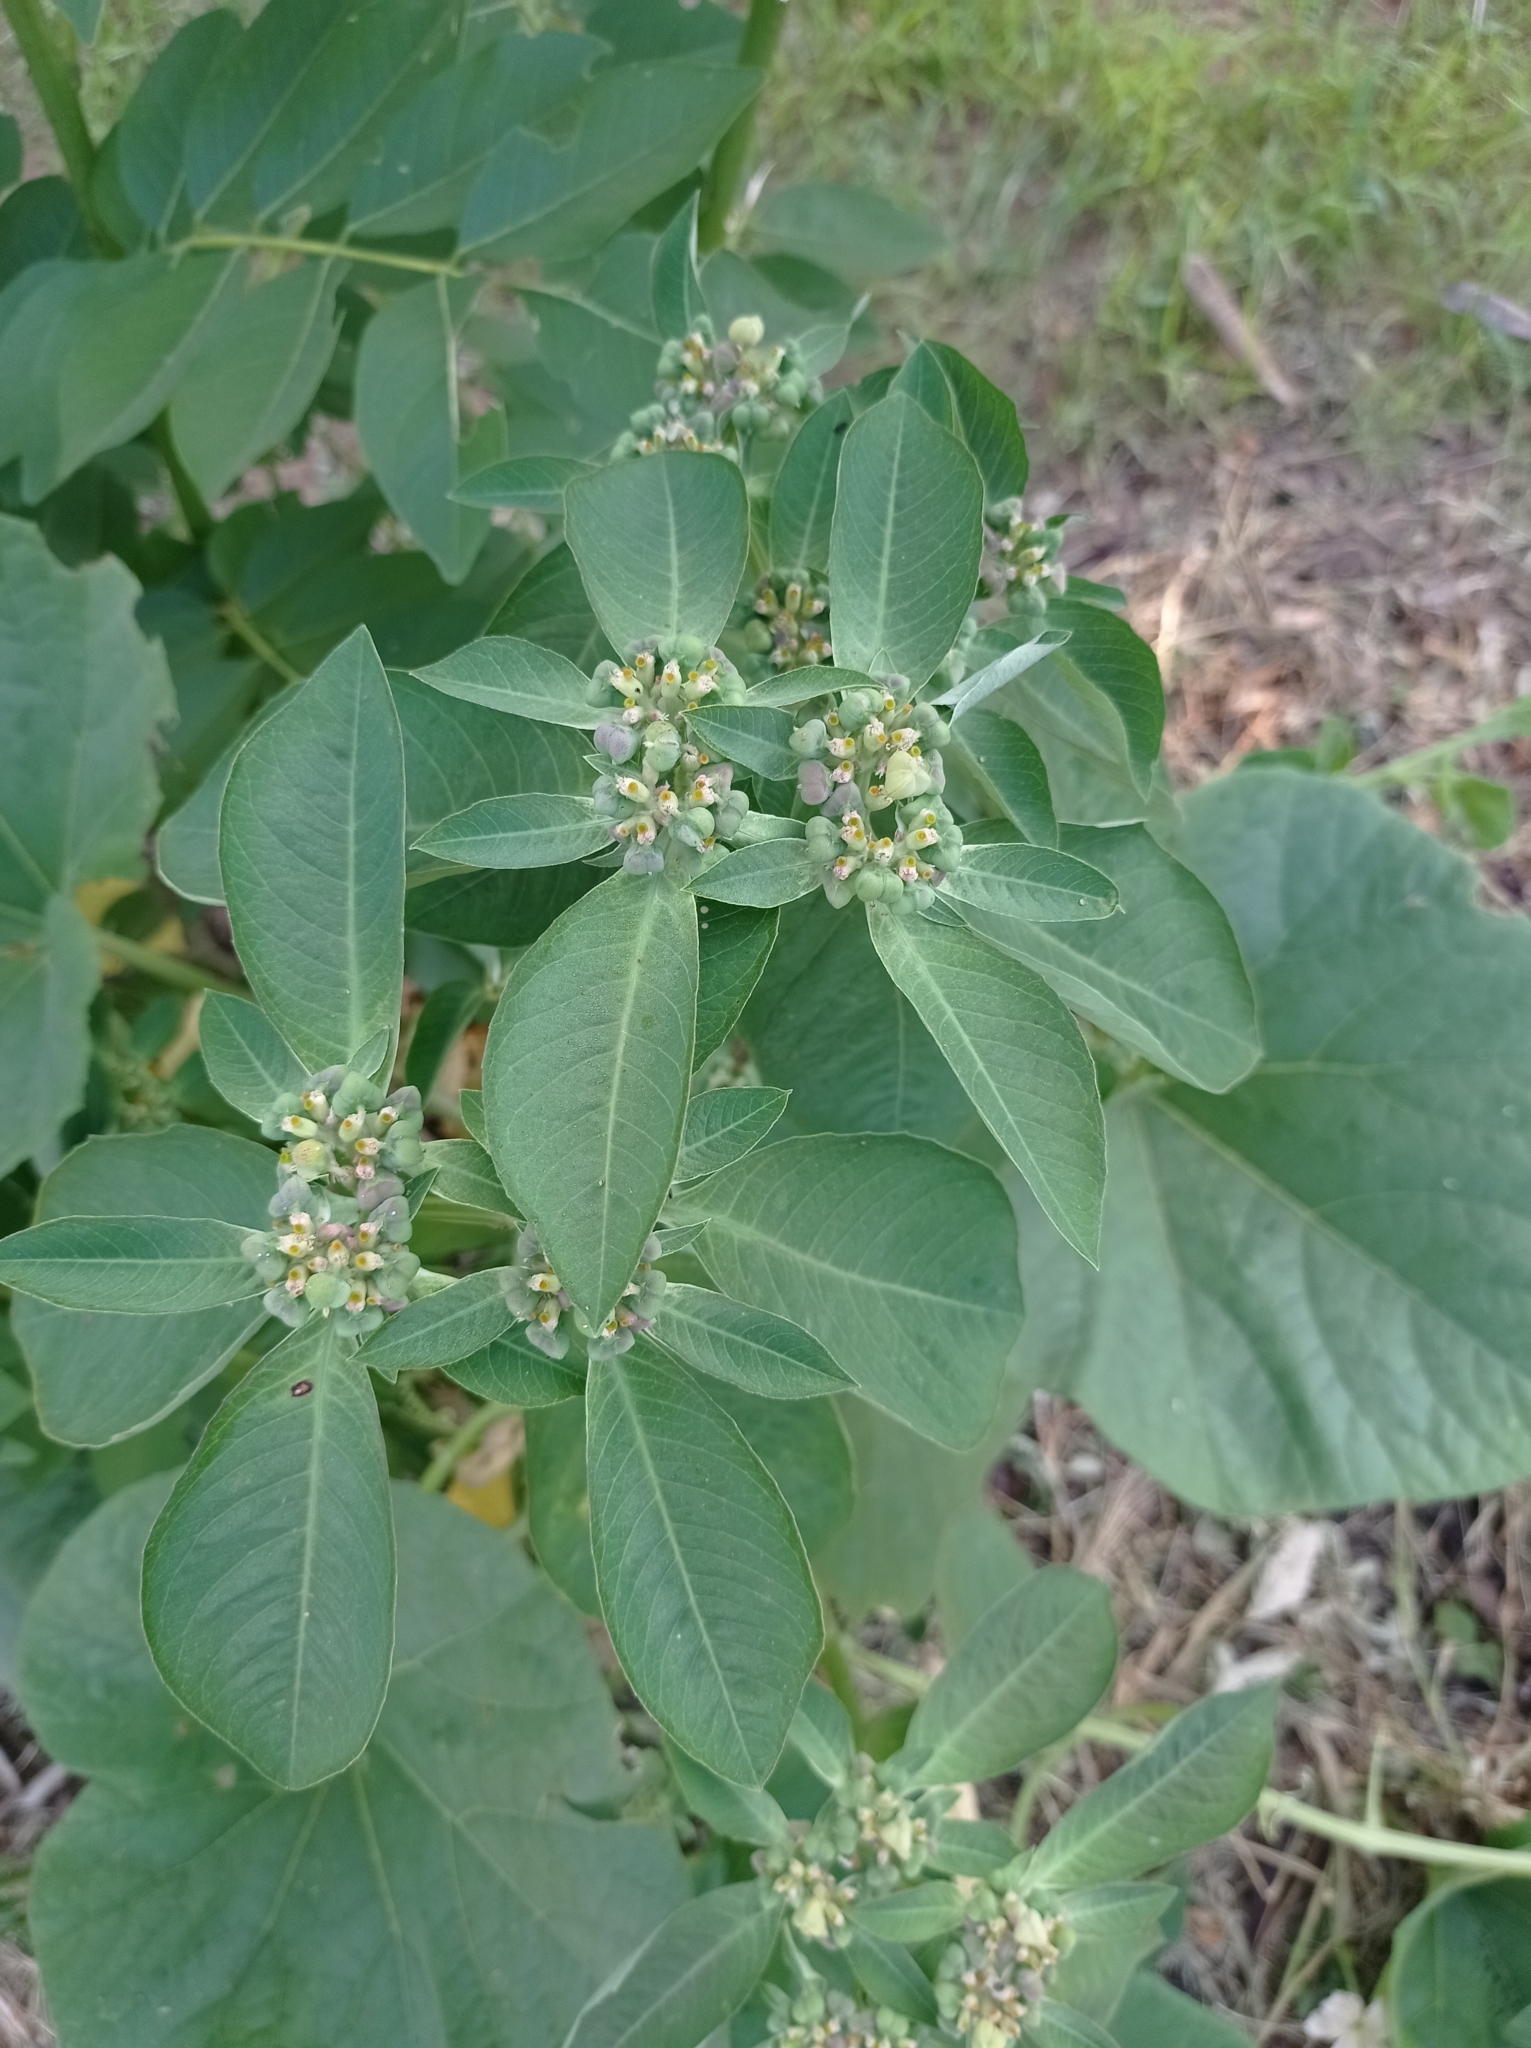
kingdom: Plantae
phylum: Tracheophyta
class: Magnoliopsida
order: Malpighiales
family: Euphorbiaceae
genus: Euphorbia
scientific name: Euphorbia heterophylla
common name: Mexican fireplant
